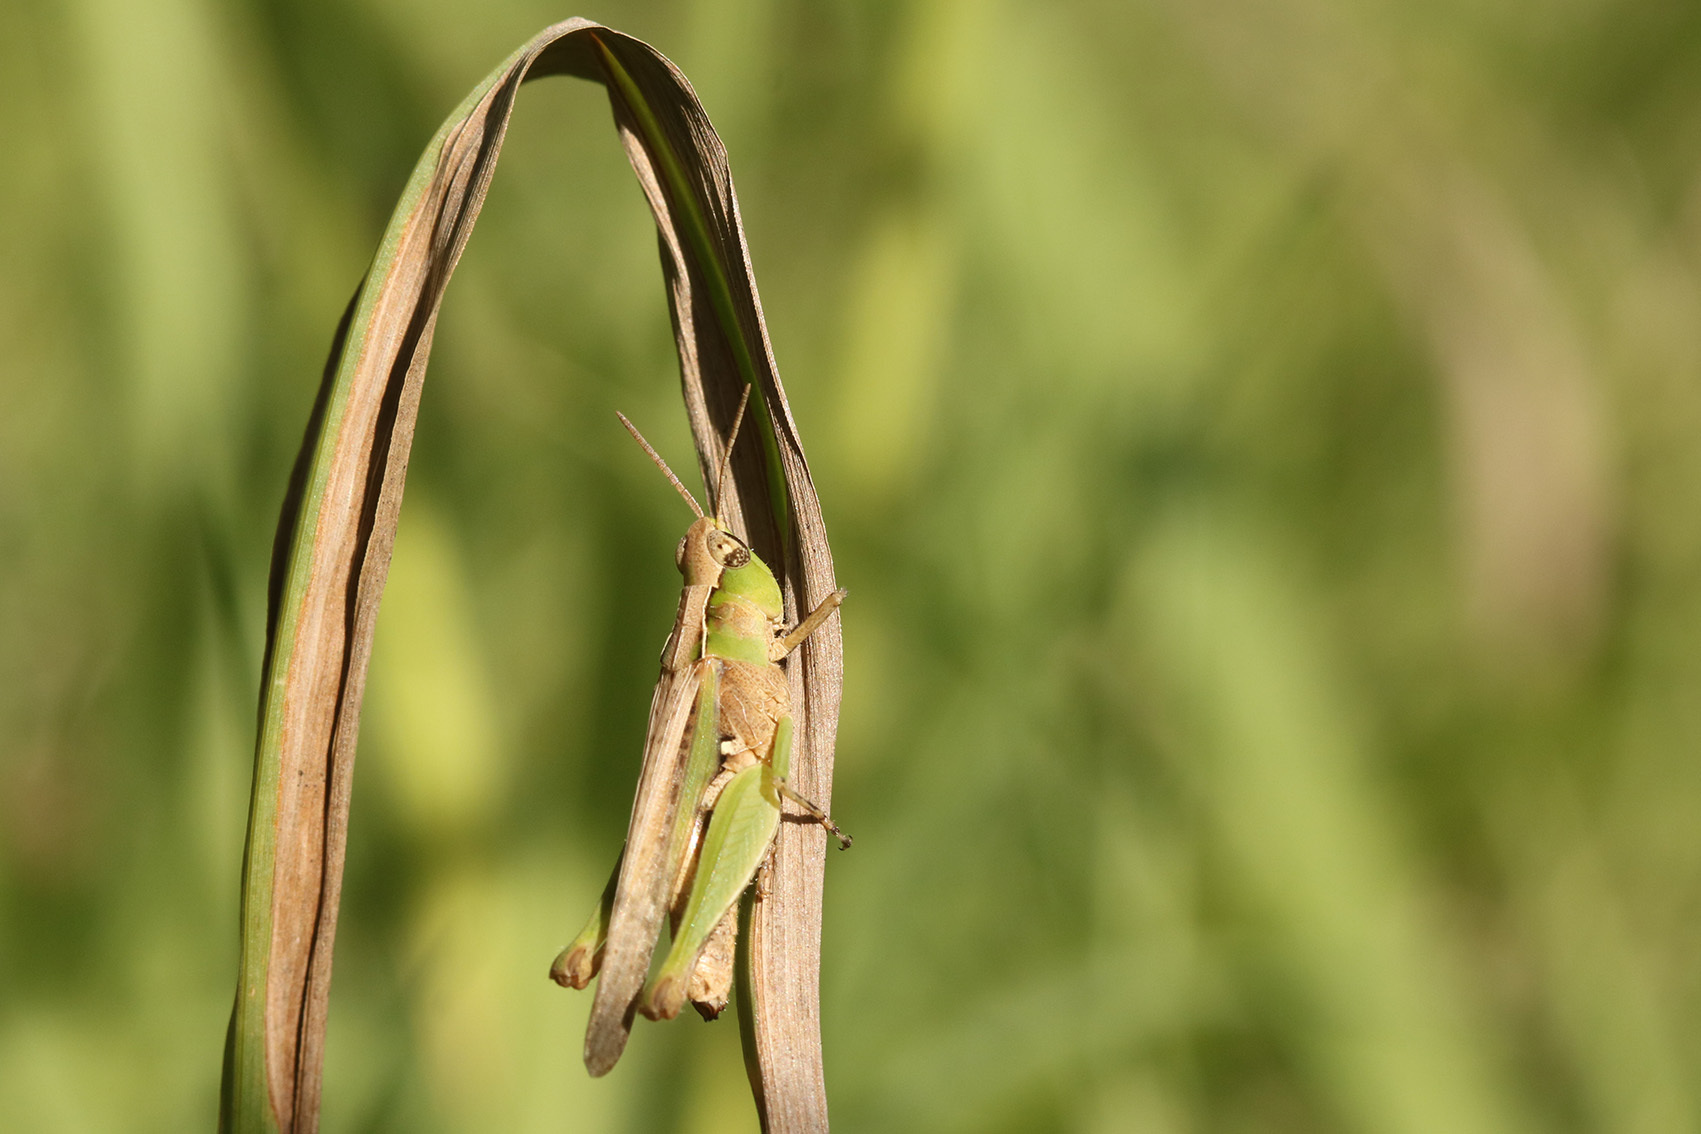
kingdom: Animalia
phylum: Arthropoda
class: Insecta
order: Orthoptera
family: Acrididae
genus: Orphulella
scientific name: Orphulella punctata
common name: Slant-faced grasshopper
